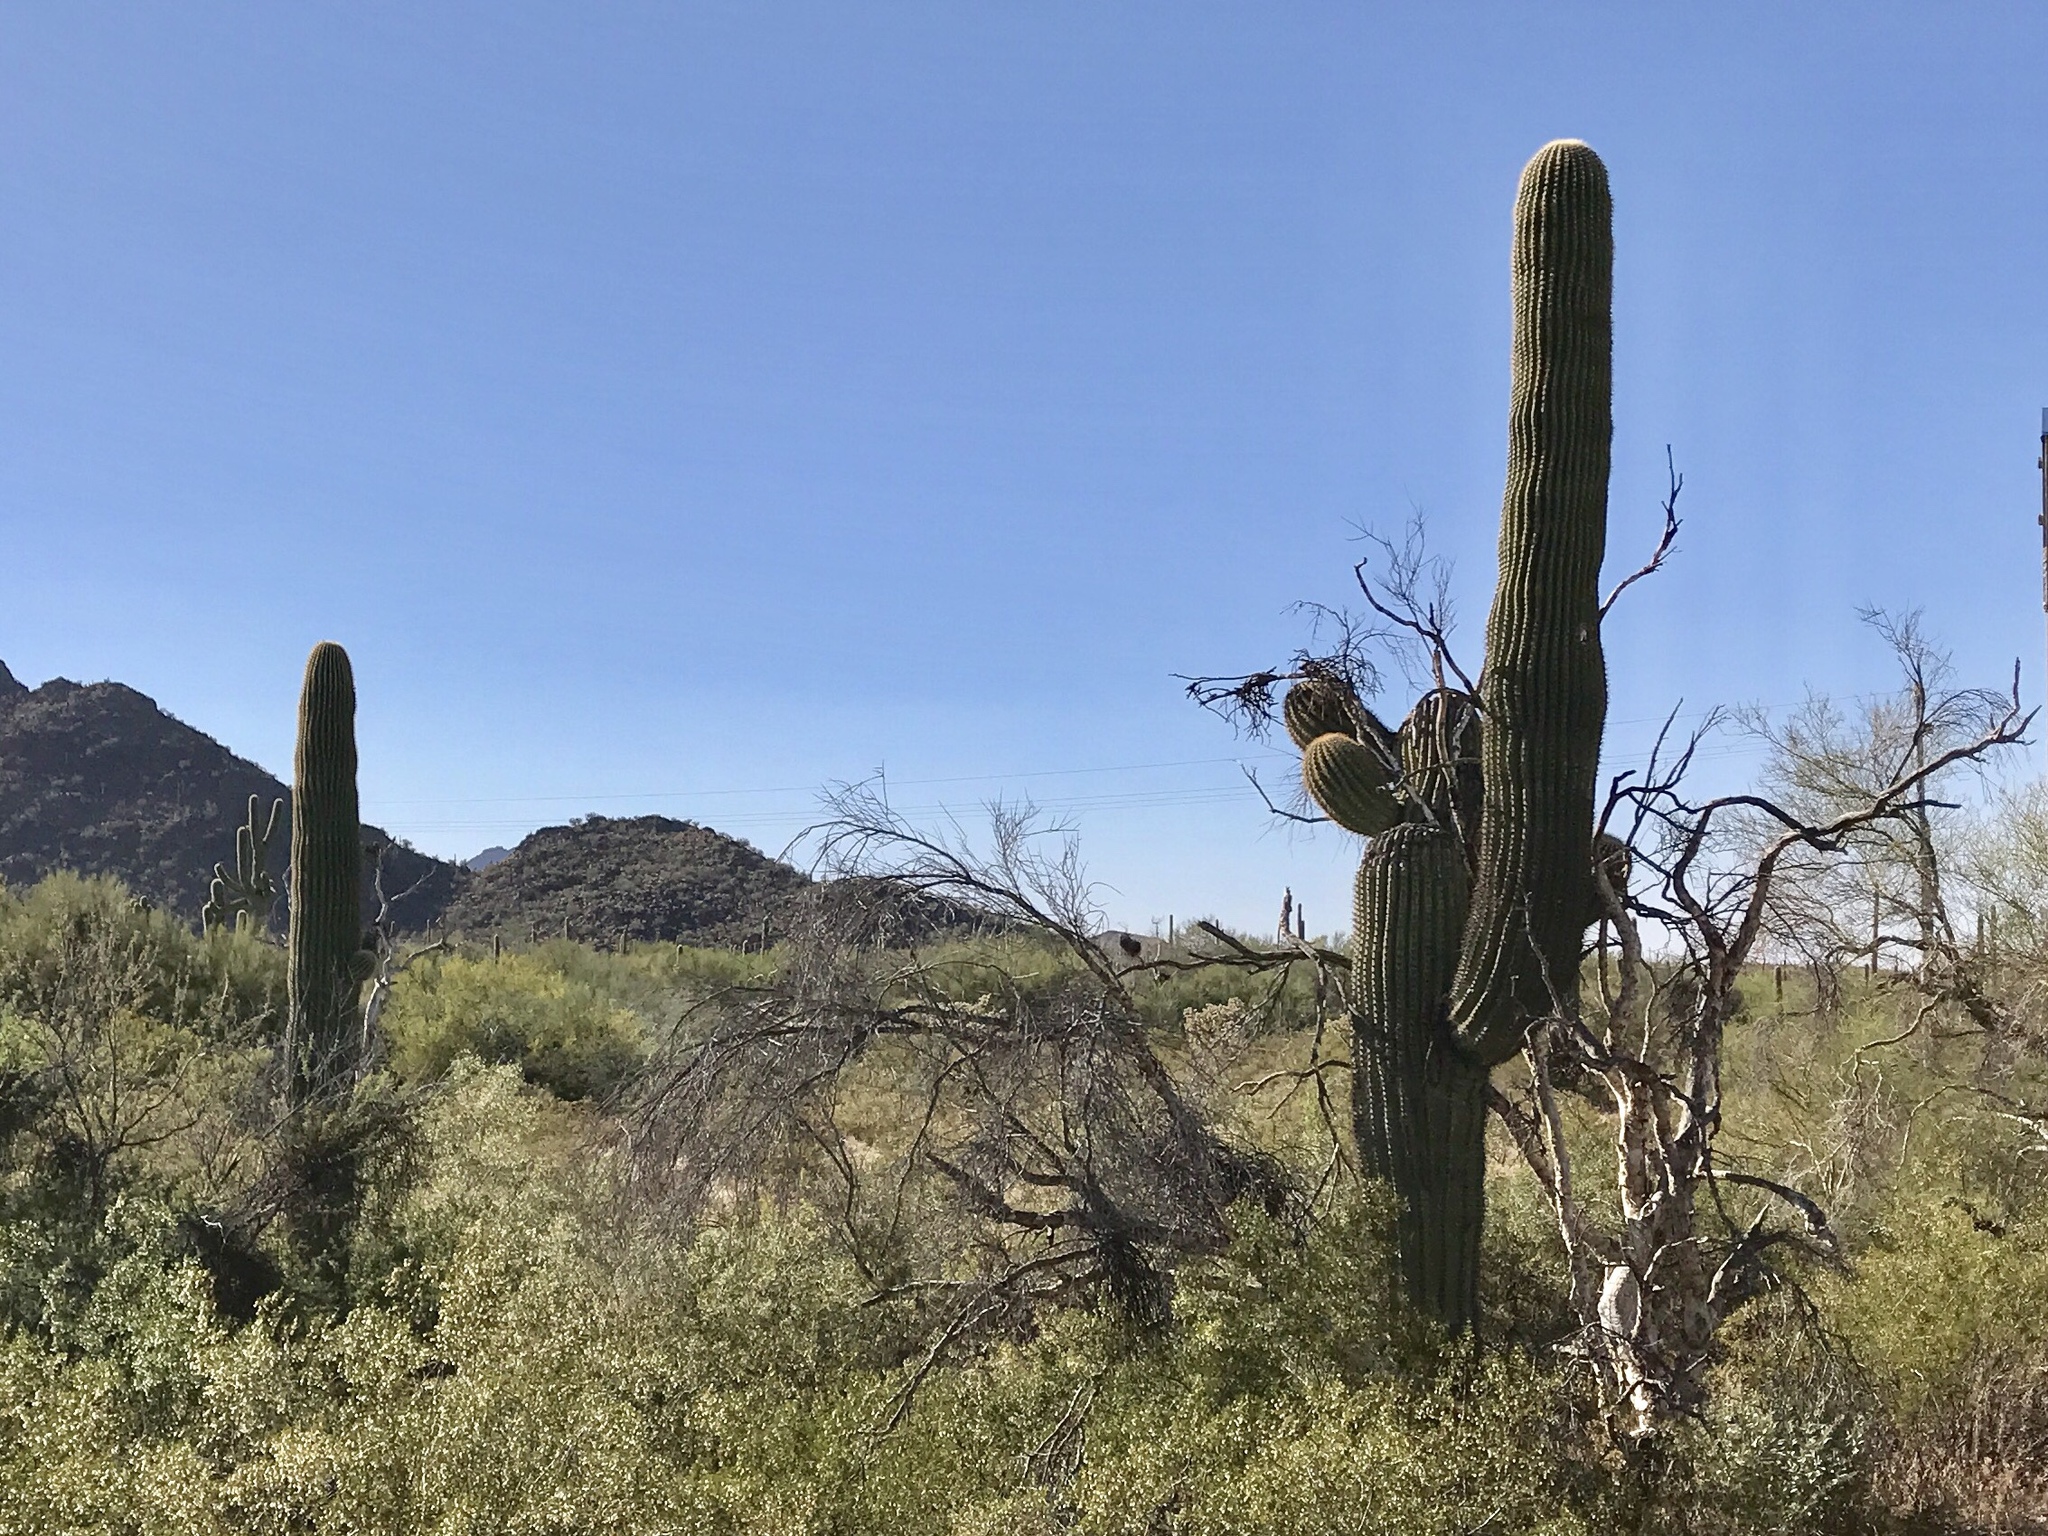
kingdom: Plantae
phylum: Tracheophyta
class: Magnoliopsida
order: Caryophyllales
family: Cactaceae
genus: Carnegiea
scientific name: Carnegiea gigantea
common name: Saguaro
